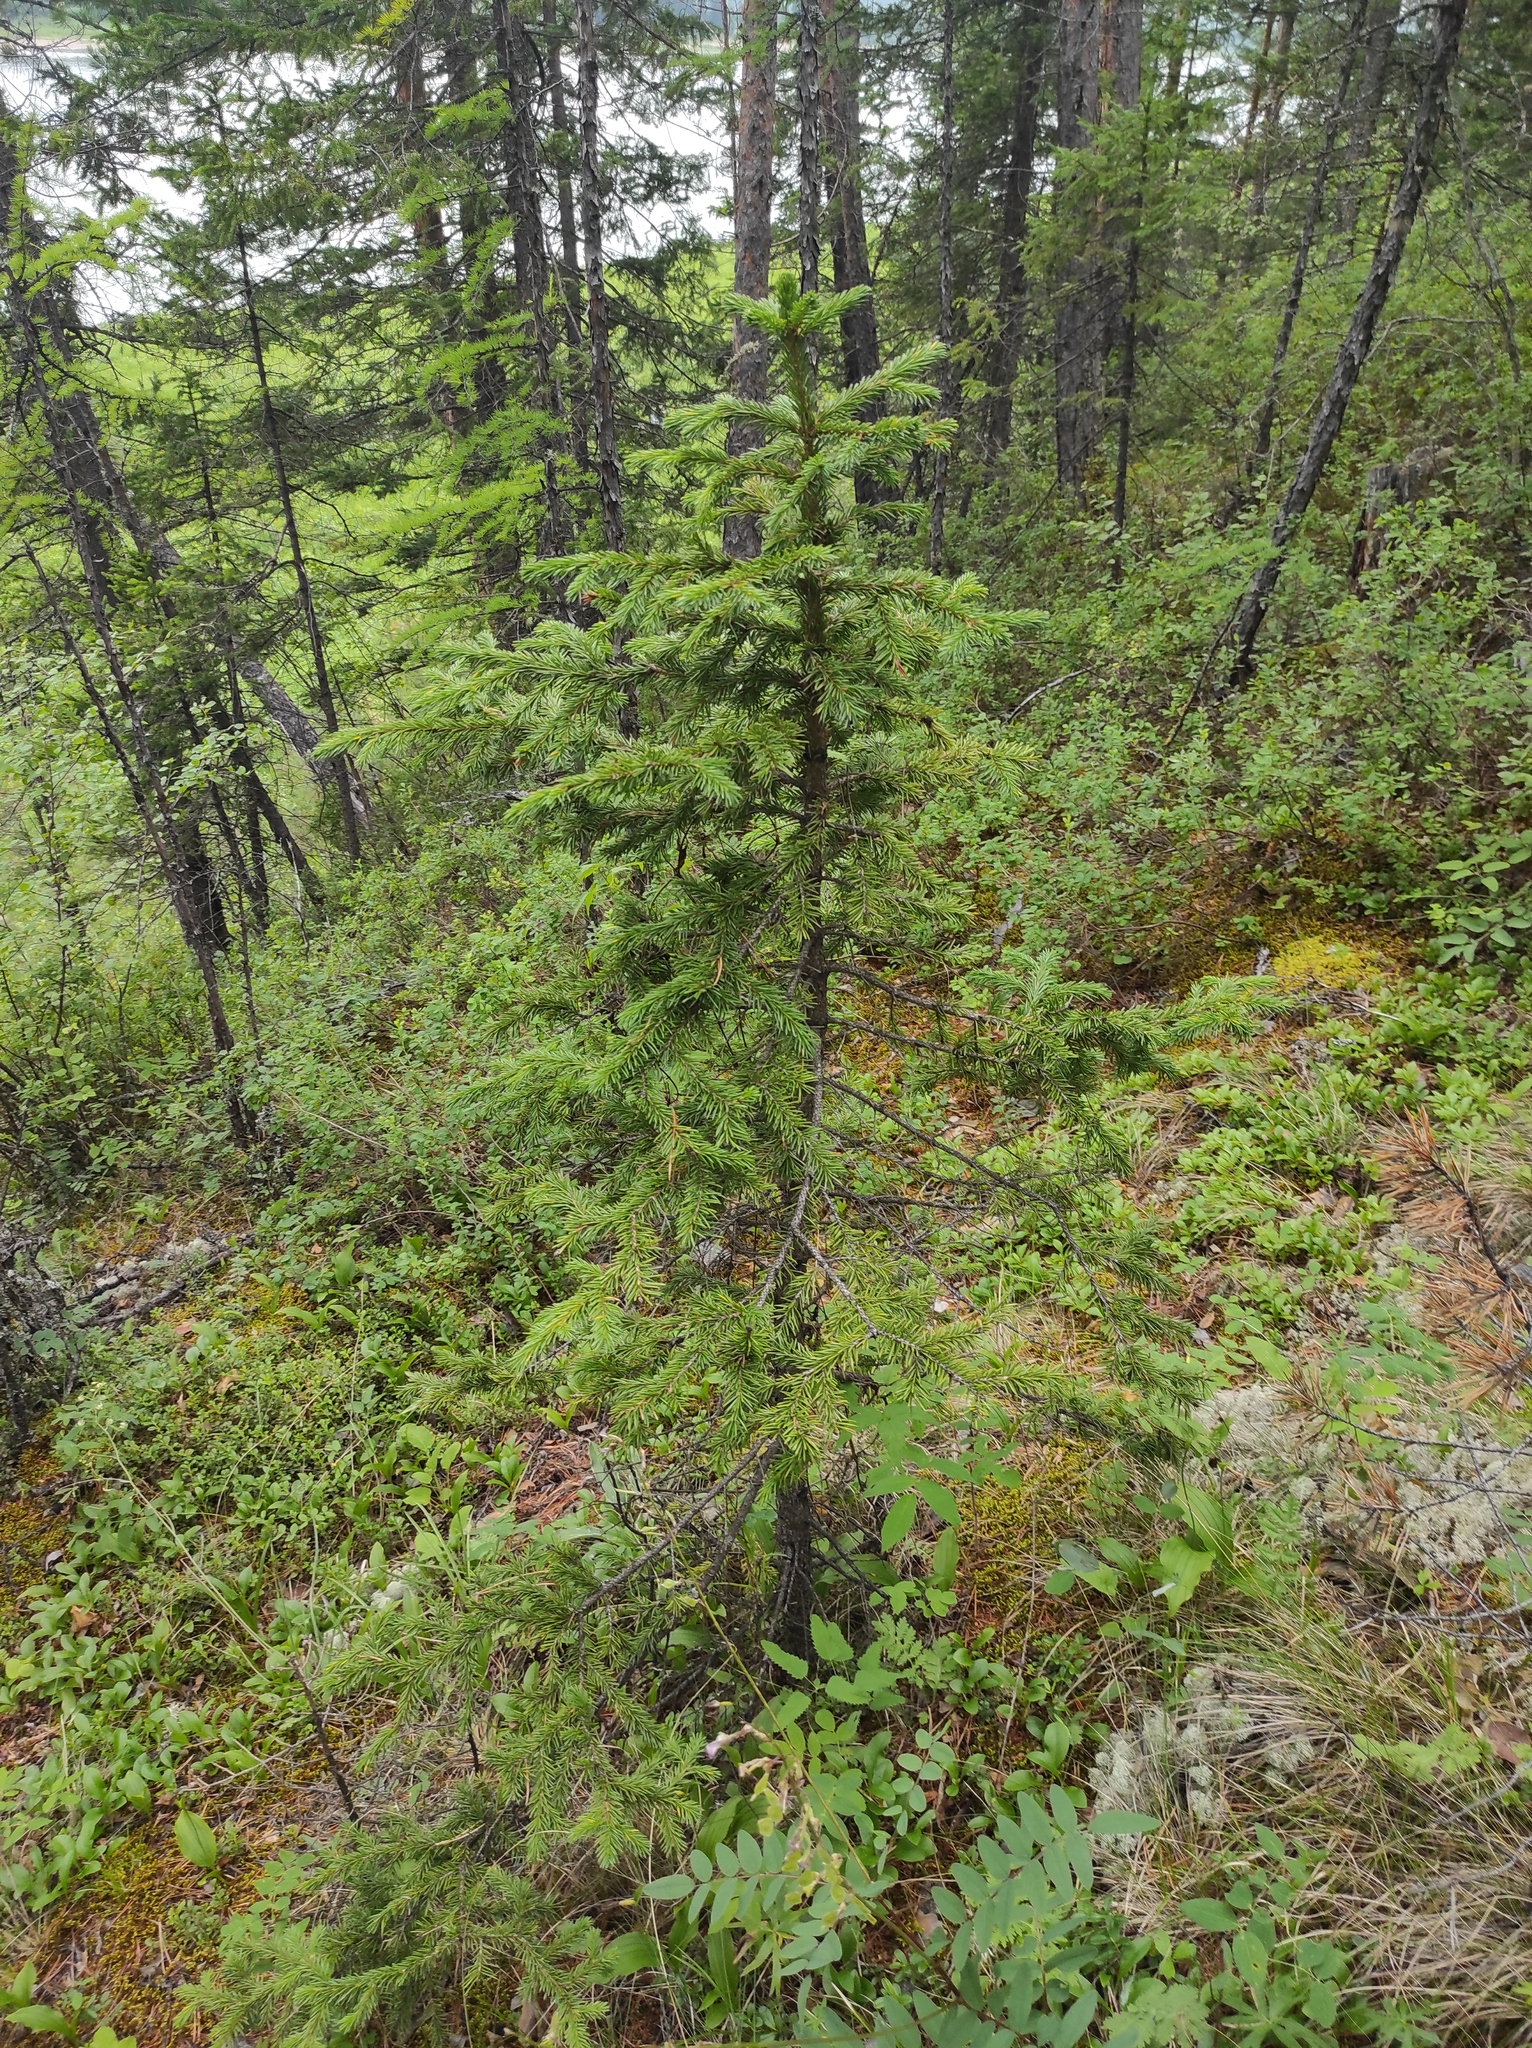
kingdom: Plantae
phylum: Tracheophyta
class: Pinopsida
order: Pinales
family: Pinaceae
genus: Picea
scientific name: Picea obovata
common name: Siberian spruce
